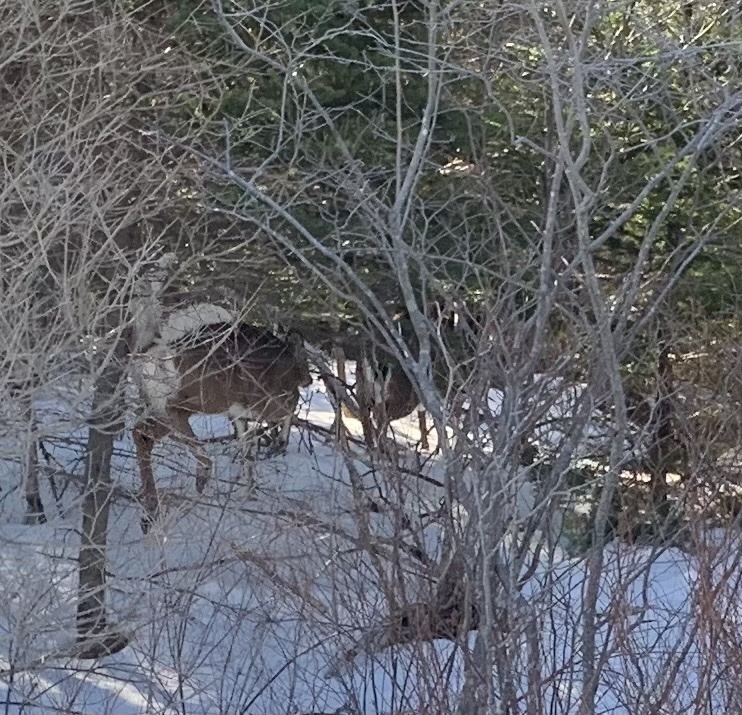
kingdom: Animalia
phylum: Chordata
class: Mammalia
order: Artiodactyla
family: Cervidae
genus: Odocoileus
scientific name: Odocoileus virginianus
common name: White-tailed deer
